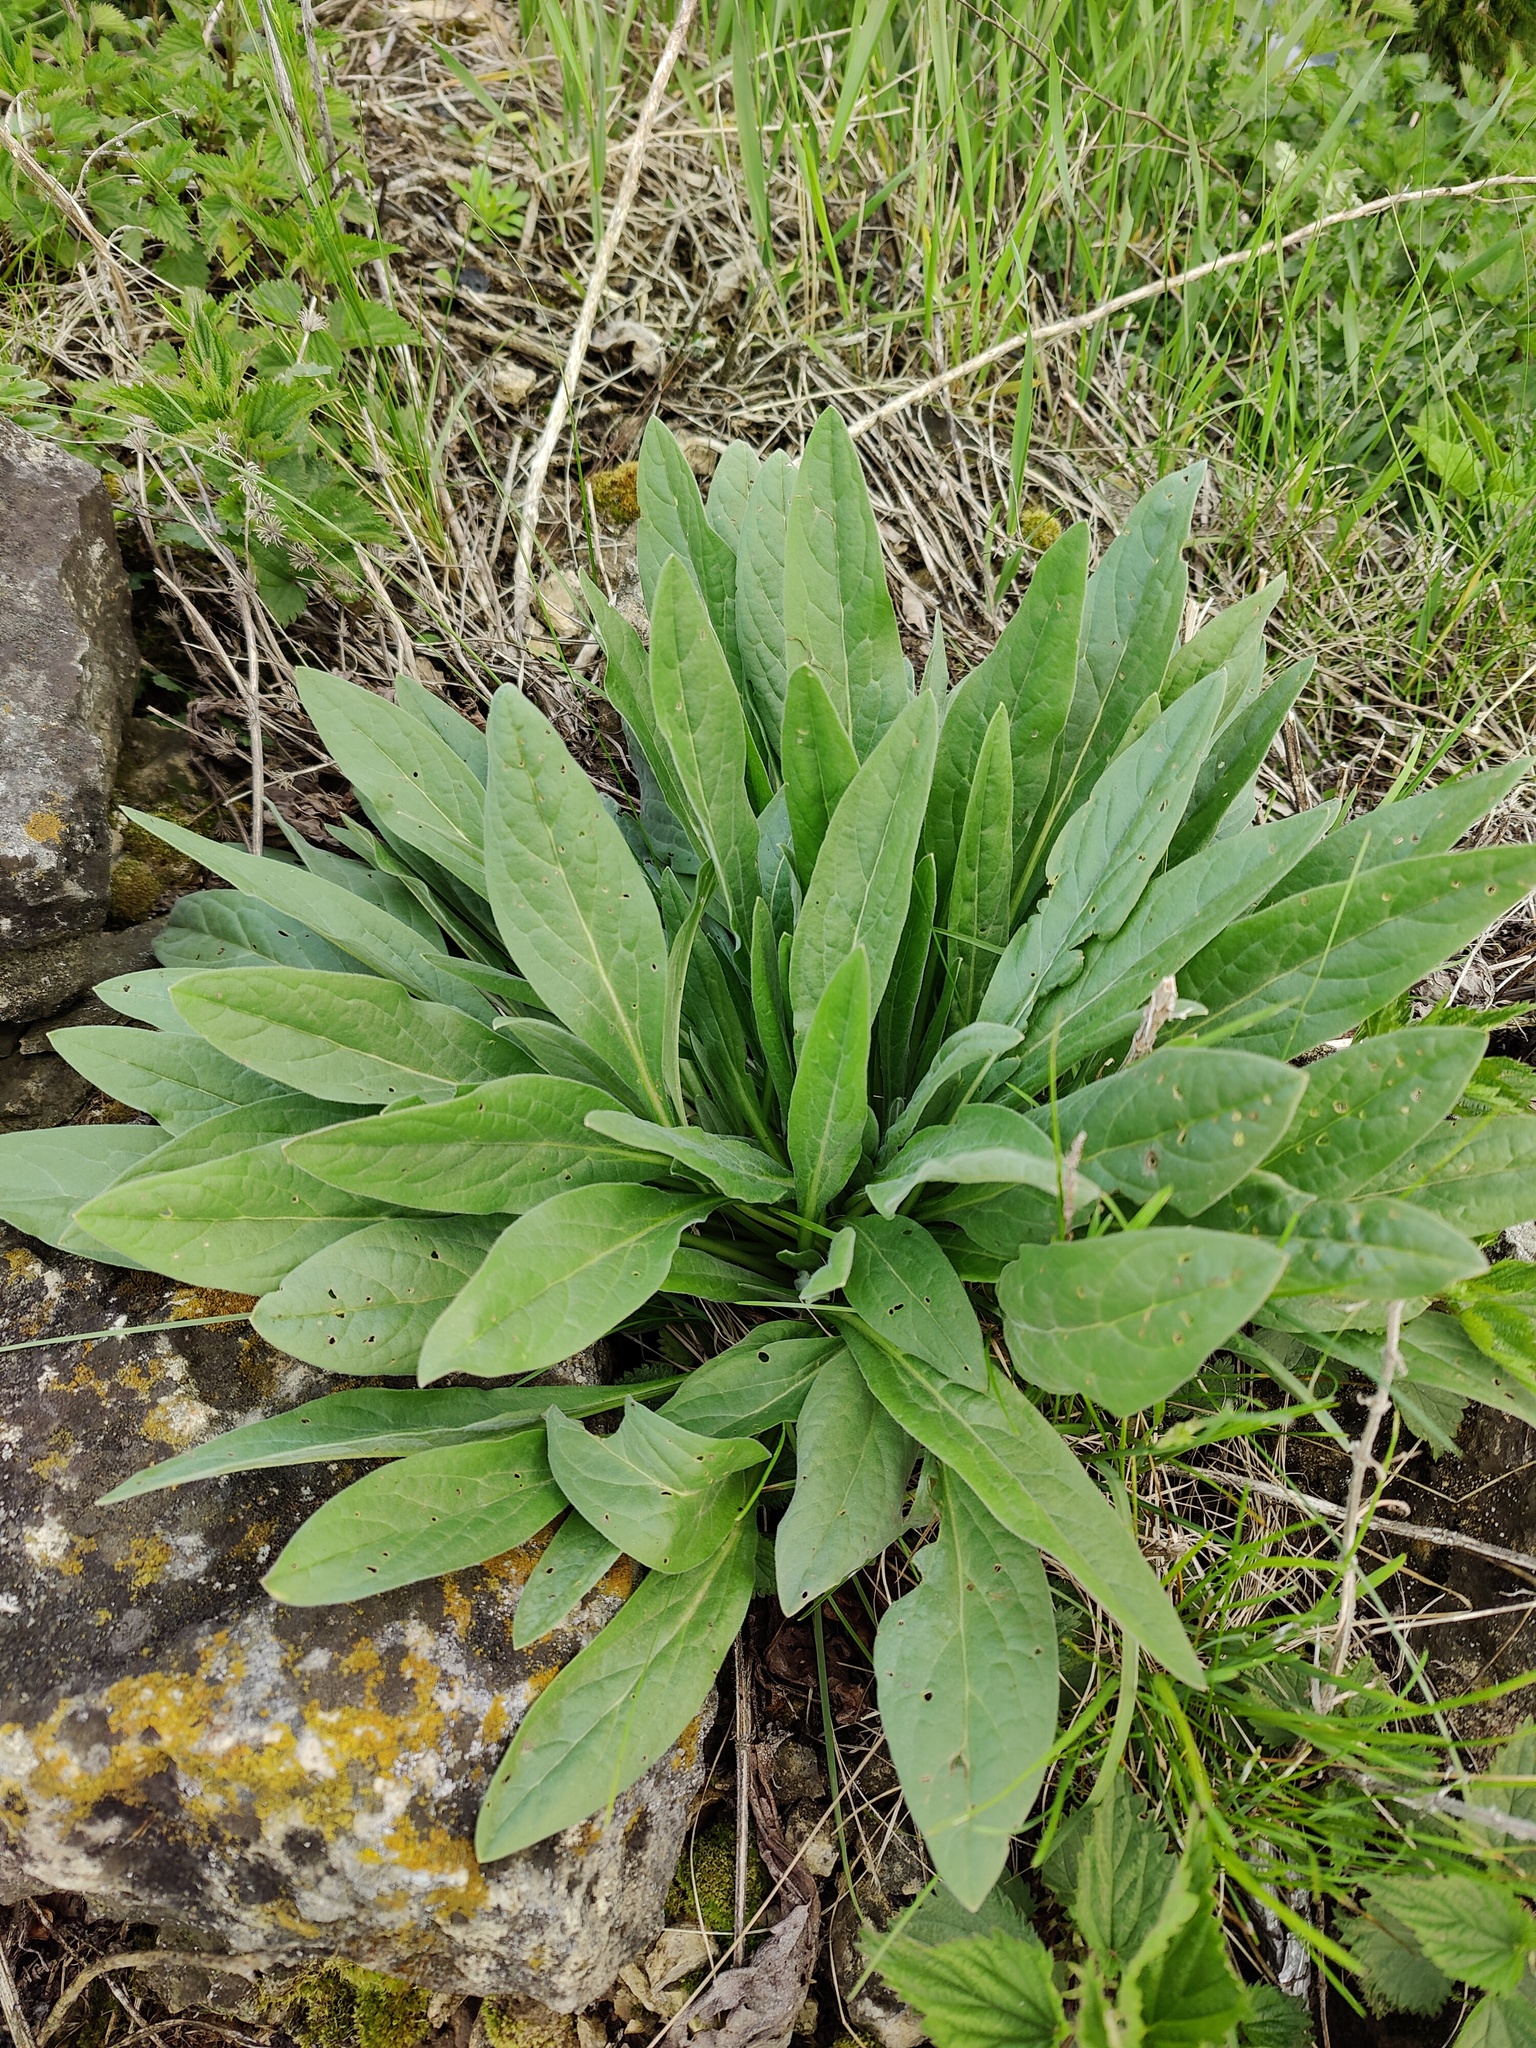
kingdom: Plantae
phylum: Tracheophyta
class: Magnoliopsida
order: Boraginales
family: Boraginaceae
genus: Cynoglossum
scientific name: Cynoglossum officinale
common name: Hound's-tongue
